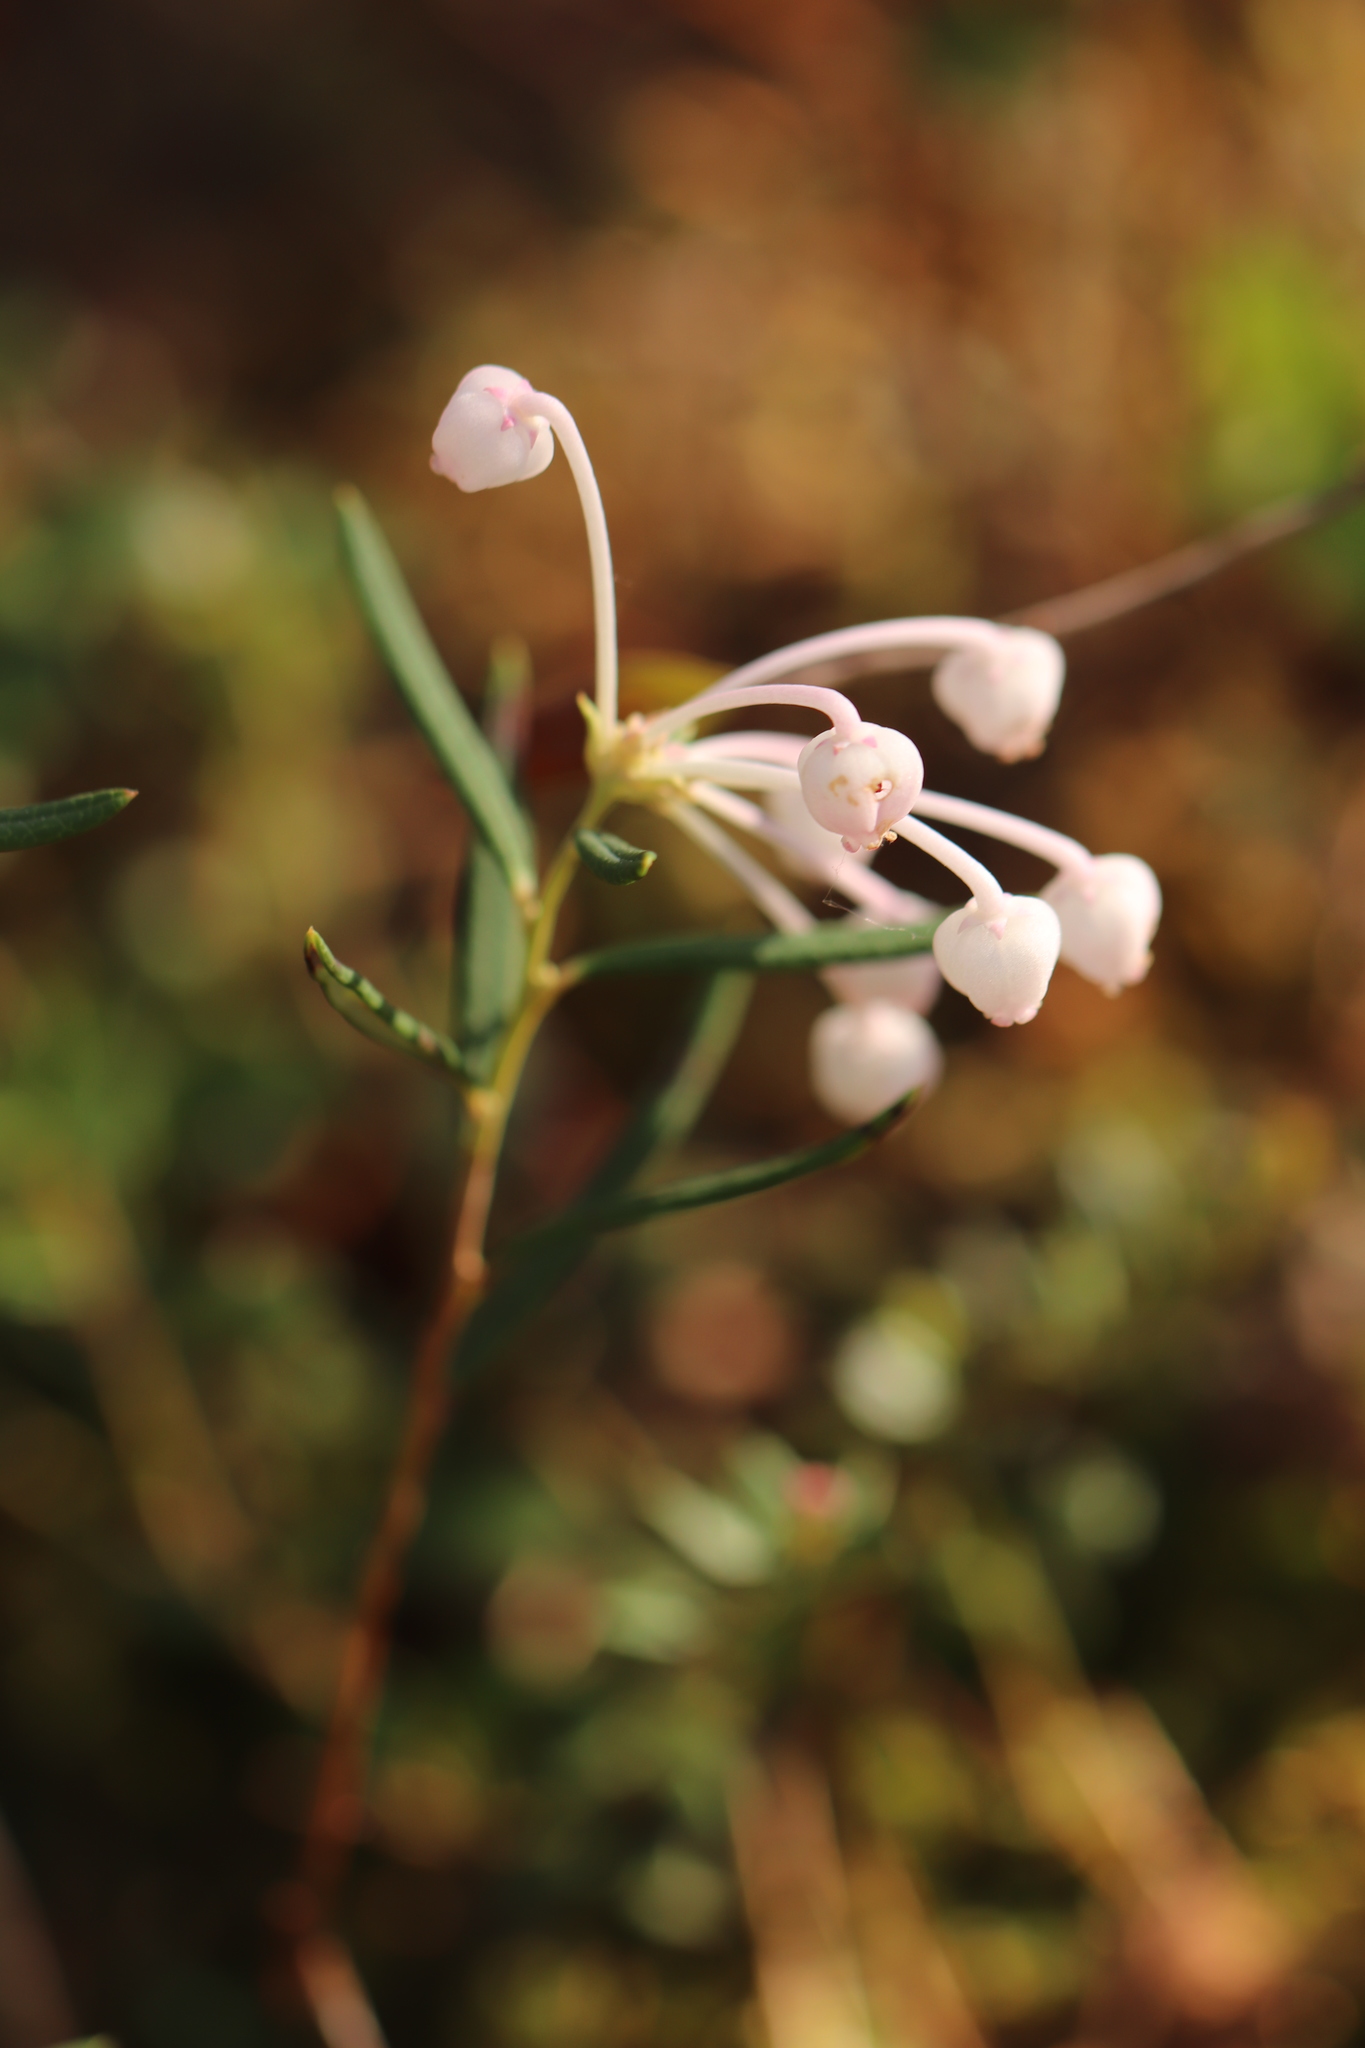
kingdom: Plantae
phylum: Tracheophyta
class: Magnoliopsida
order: Ericales
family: Ericaceae
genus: Andromeda
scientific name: Andromeda polifolia
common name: Bog-rosemary
